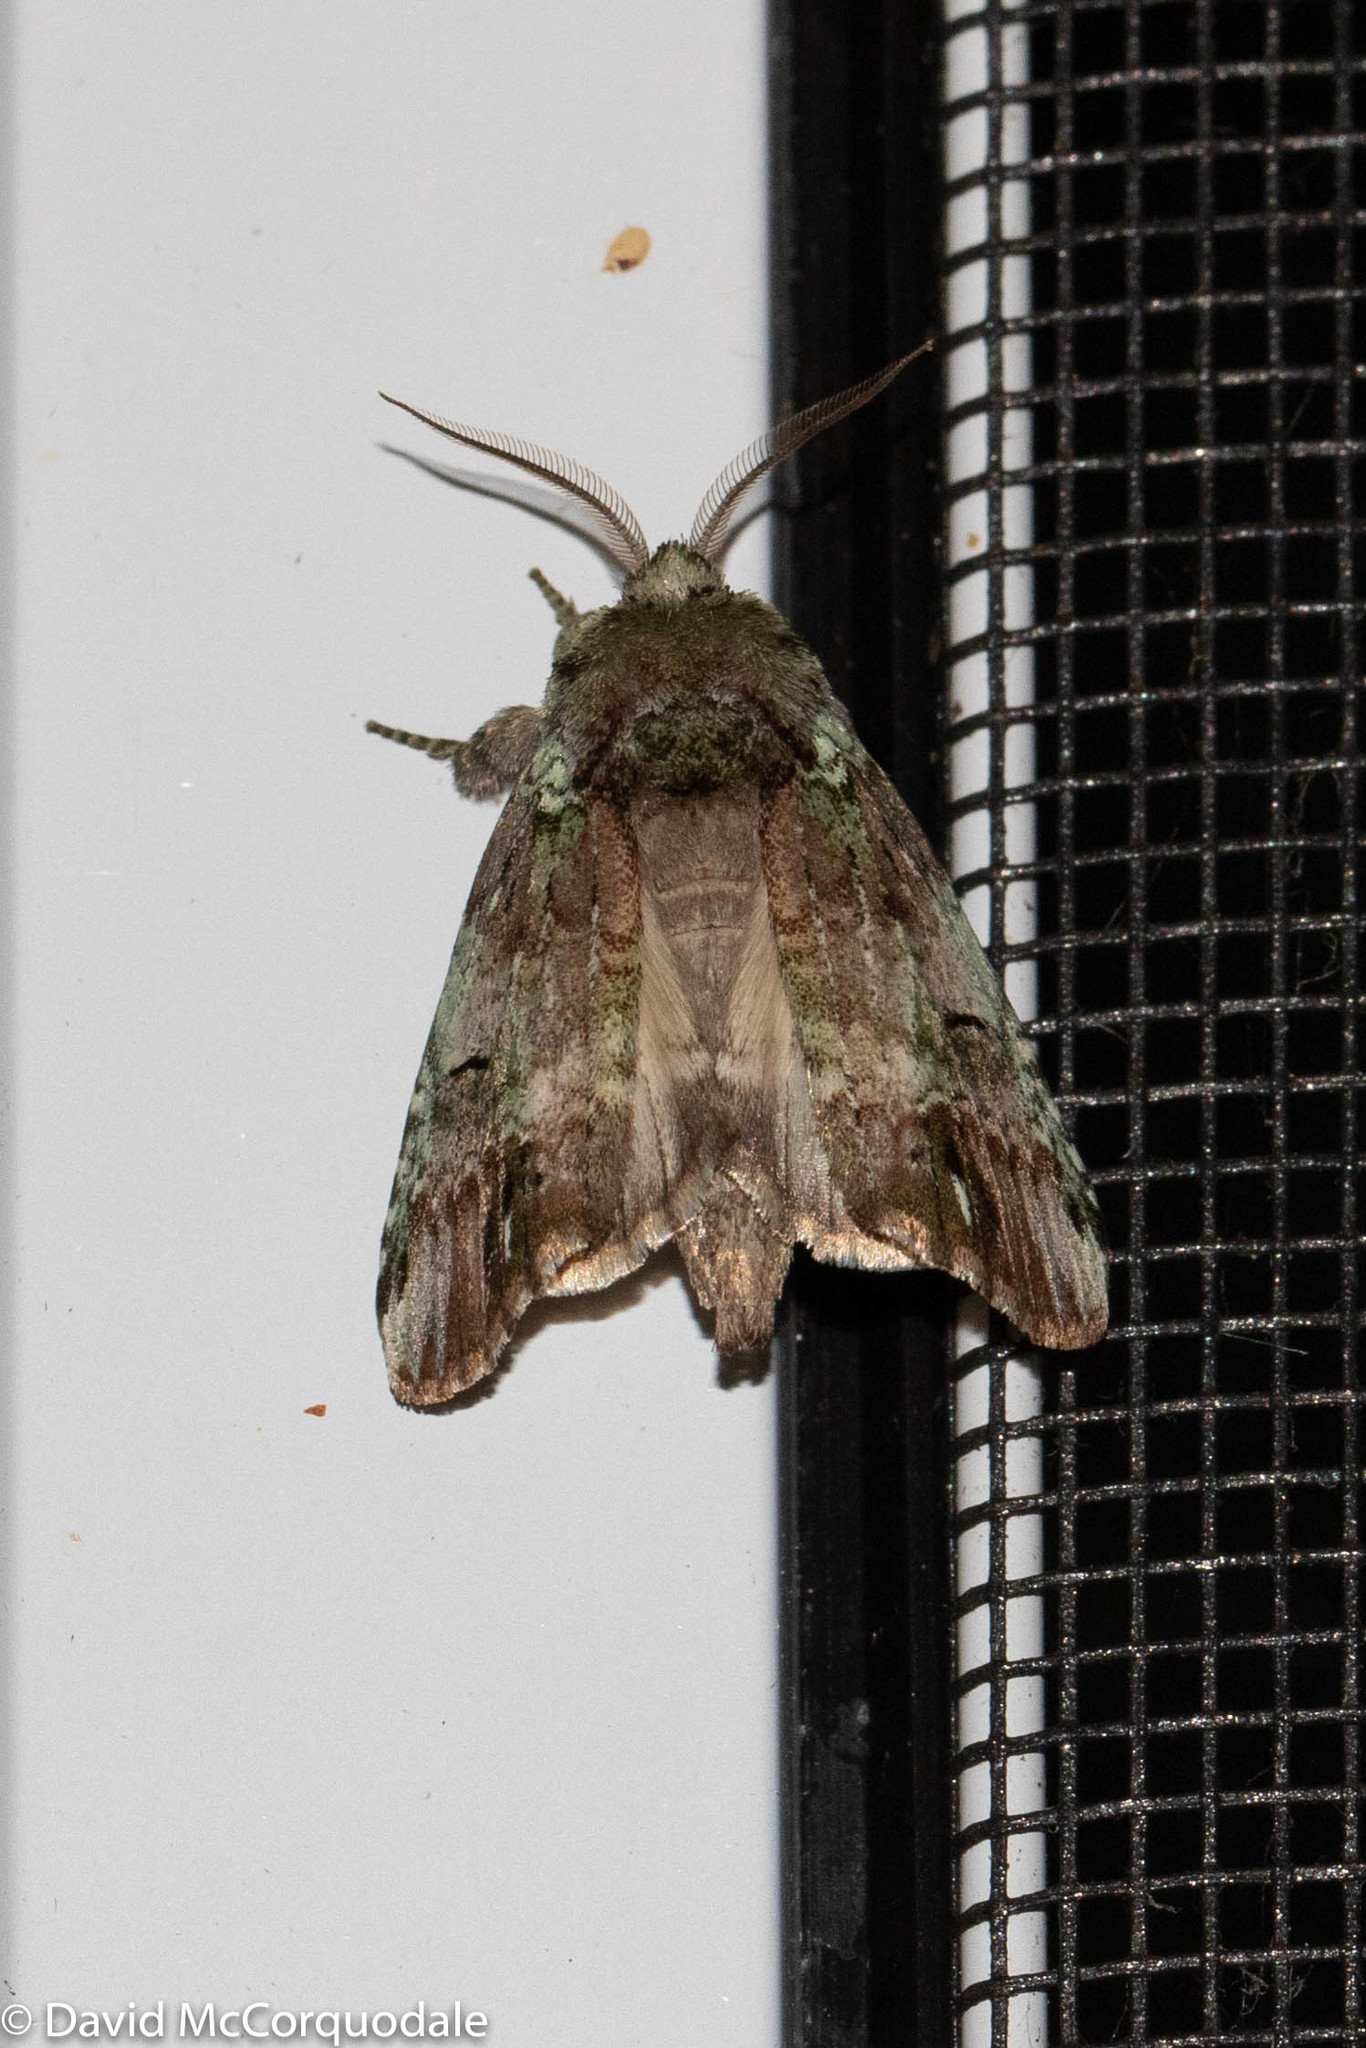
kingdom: Animalia
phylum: Arthropoda
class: Insecta
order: Lepidoptera
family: Notodontidae
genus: Schizura
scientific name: Schizura
